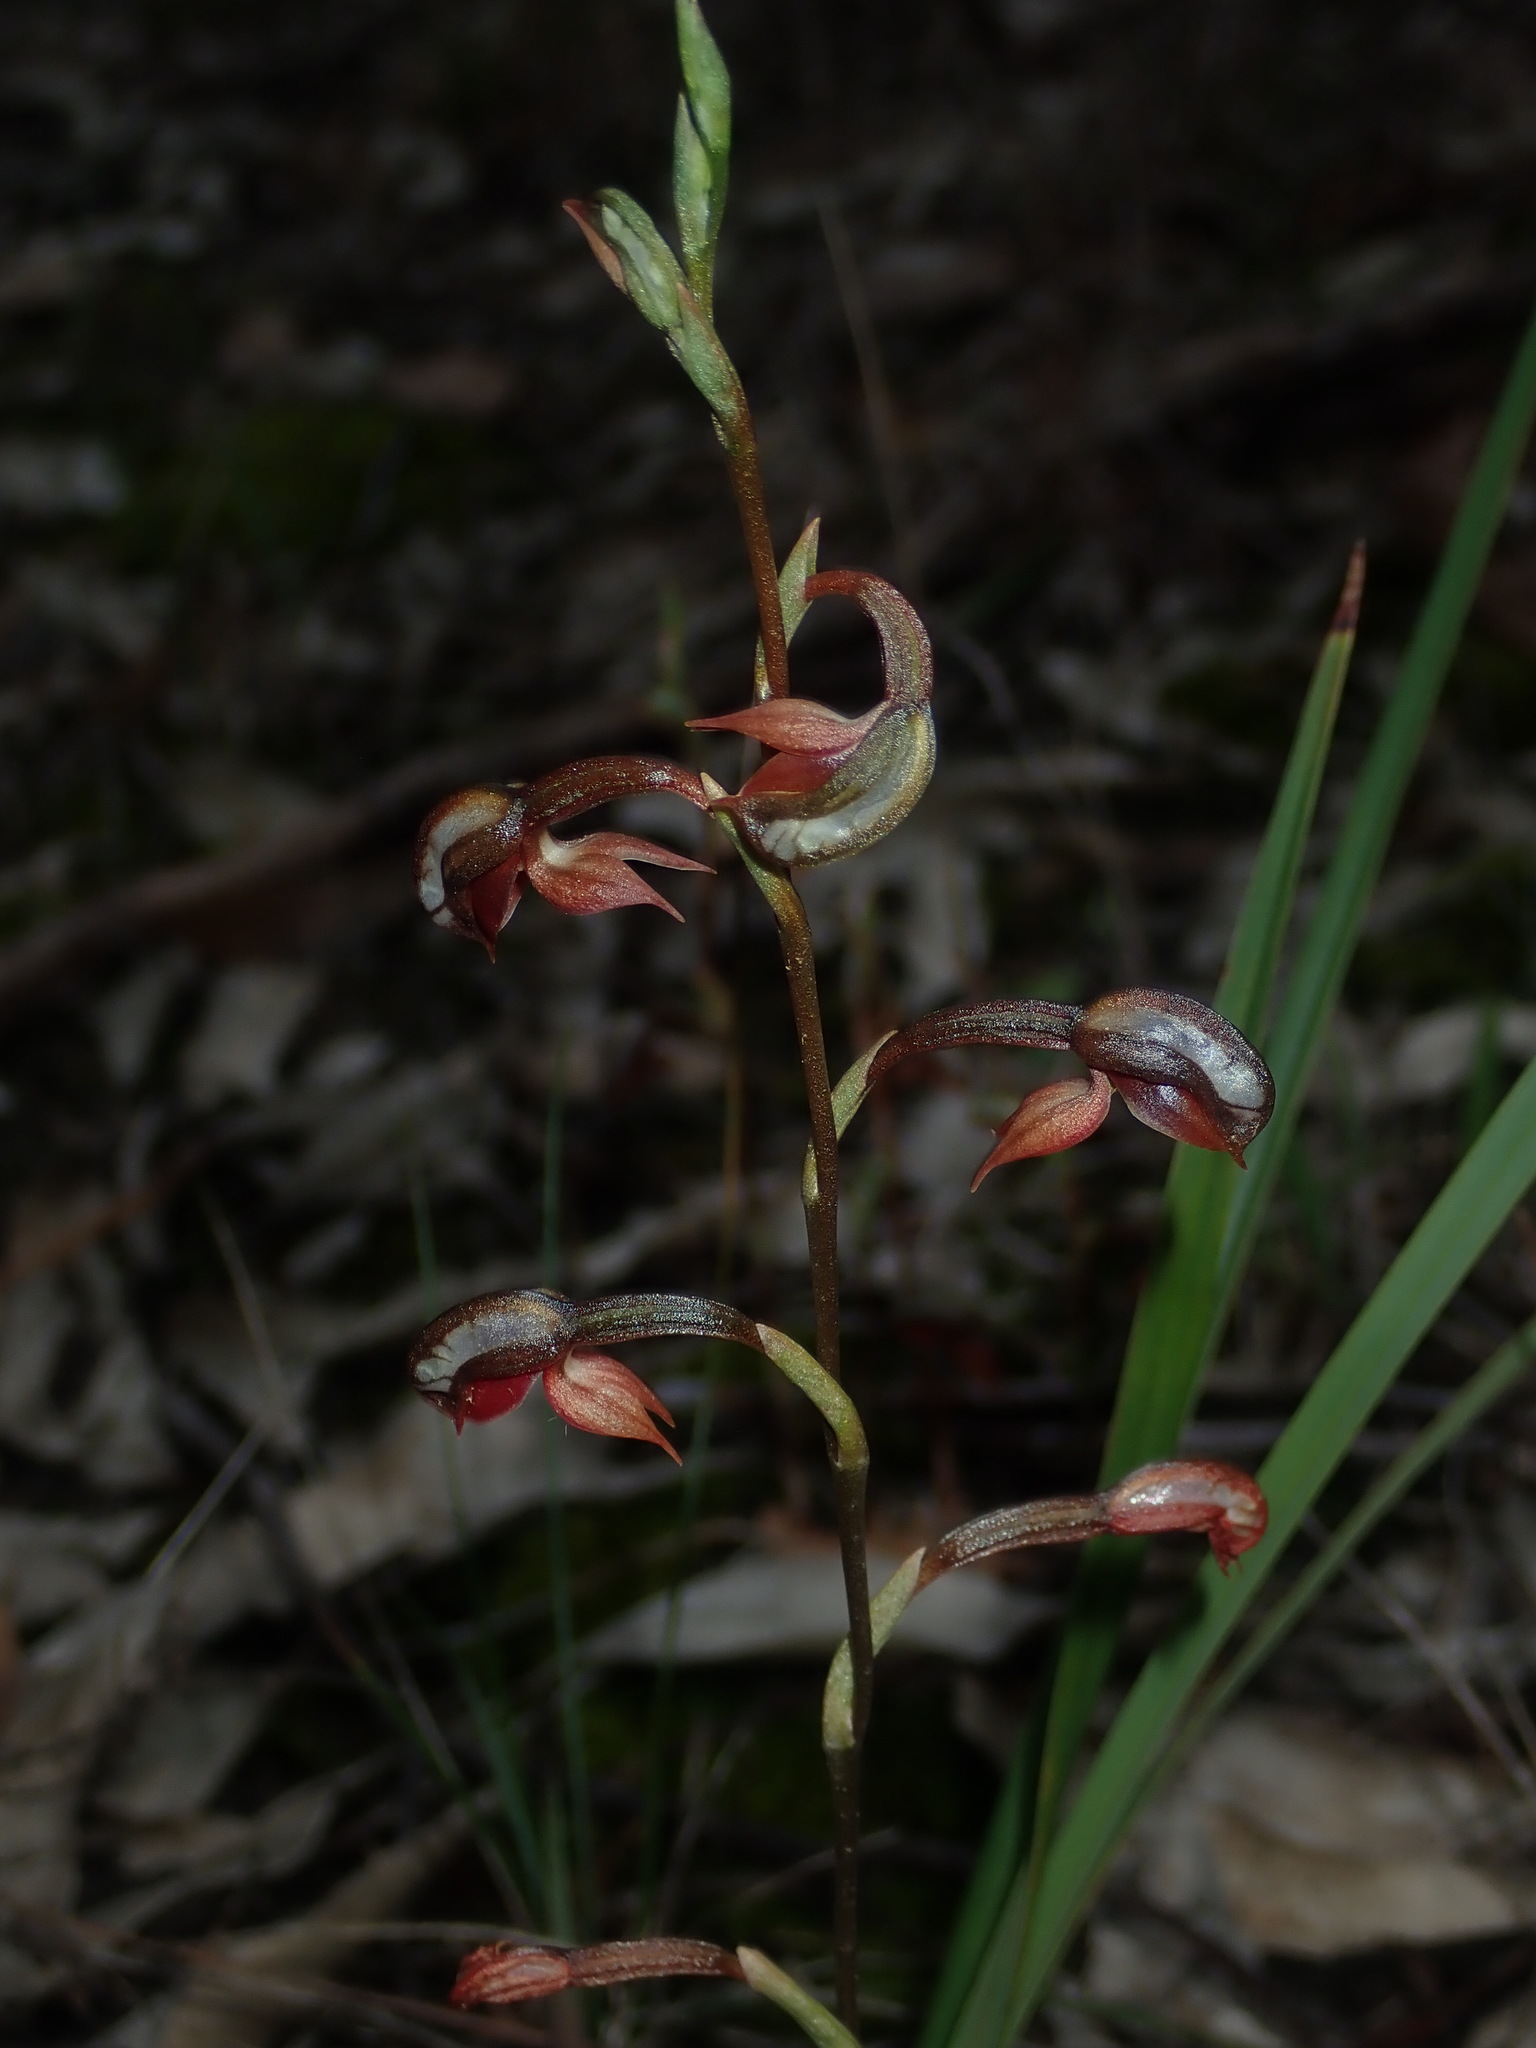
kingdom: Plantae
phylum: Tracheophyta
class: Liliopsida
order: Asparagales
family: Orchidaceae
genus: Pterostylis
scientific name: Pterostylis rufa
